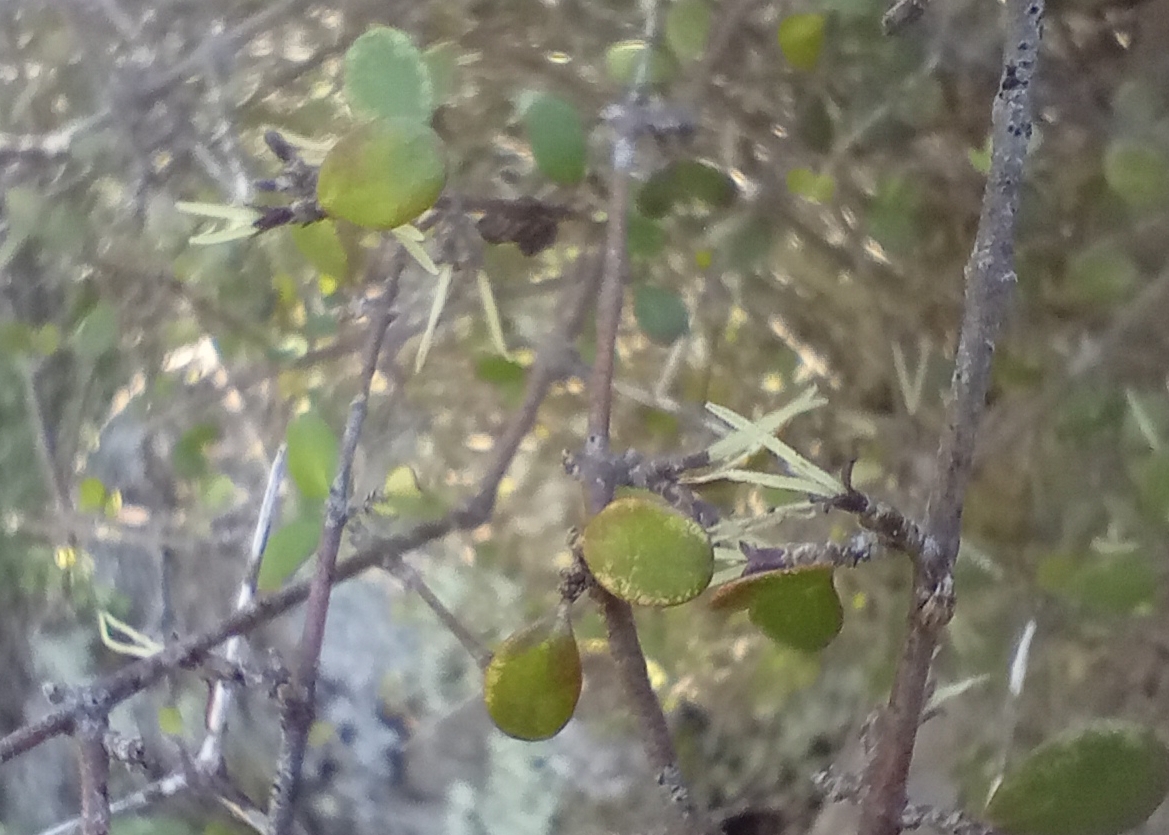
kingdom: Plantae
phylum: Tracheophyta
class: Magnoliopsida
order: Gentianales
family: Rubiaceae
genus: Coprosma
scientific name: Coprosma crassifolia
